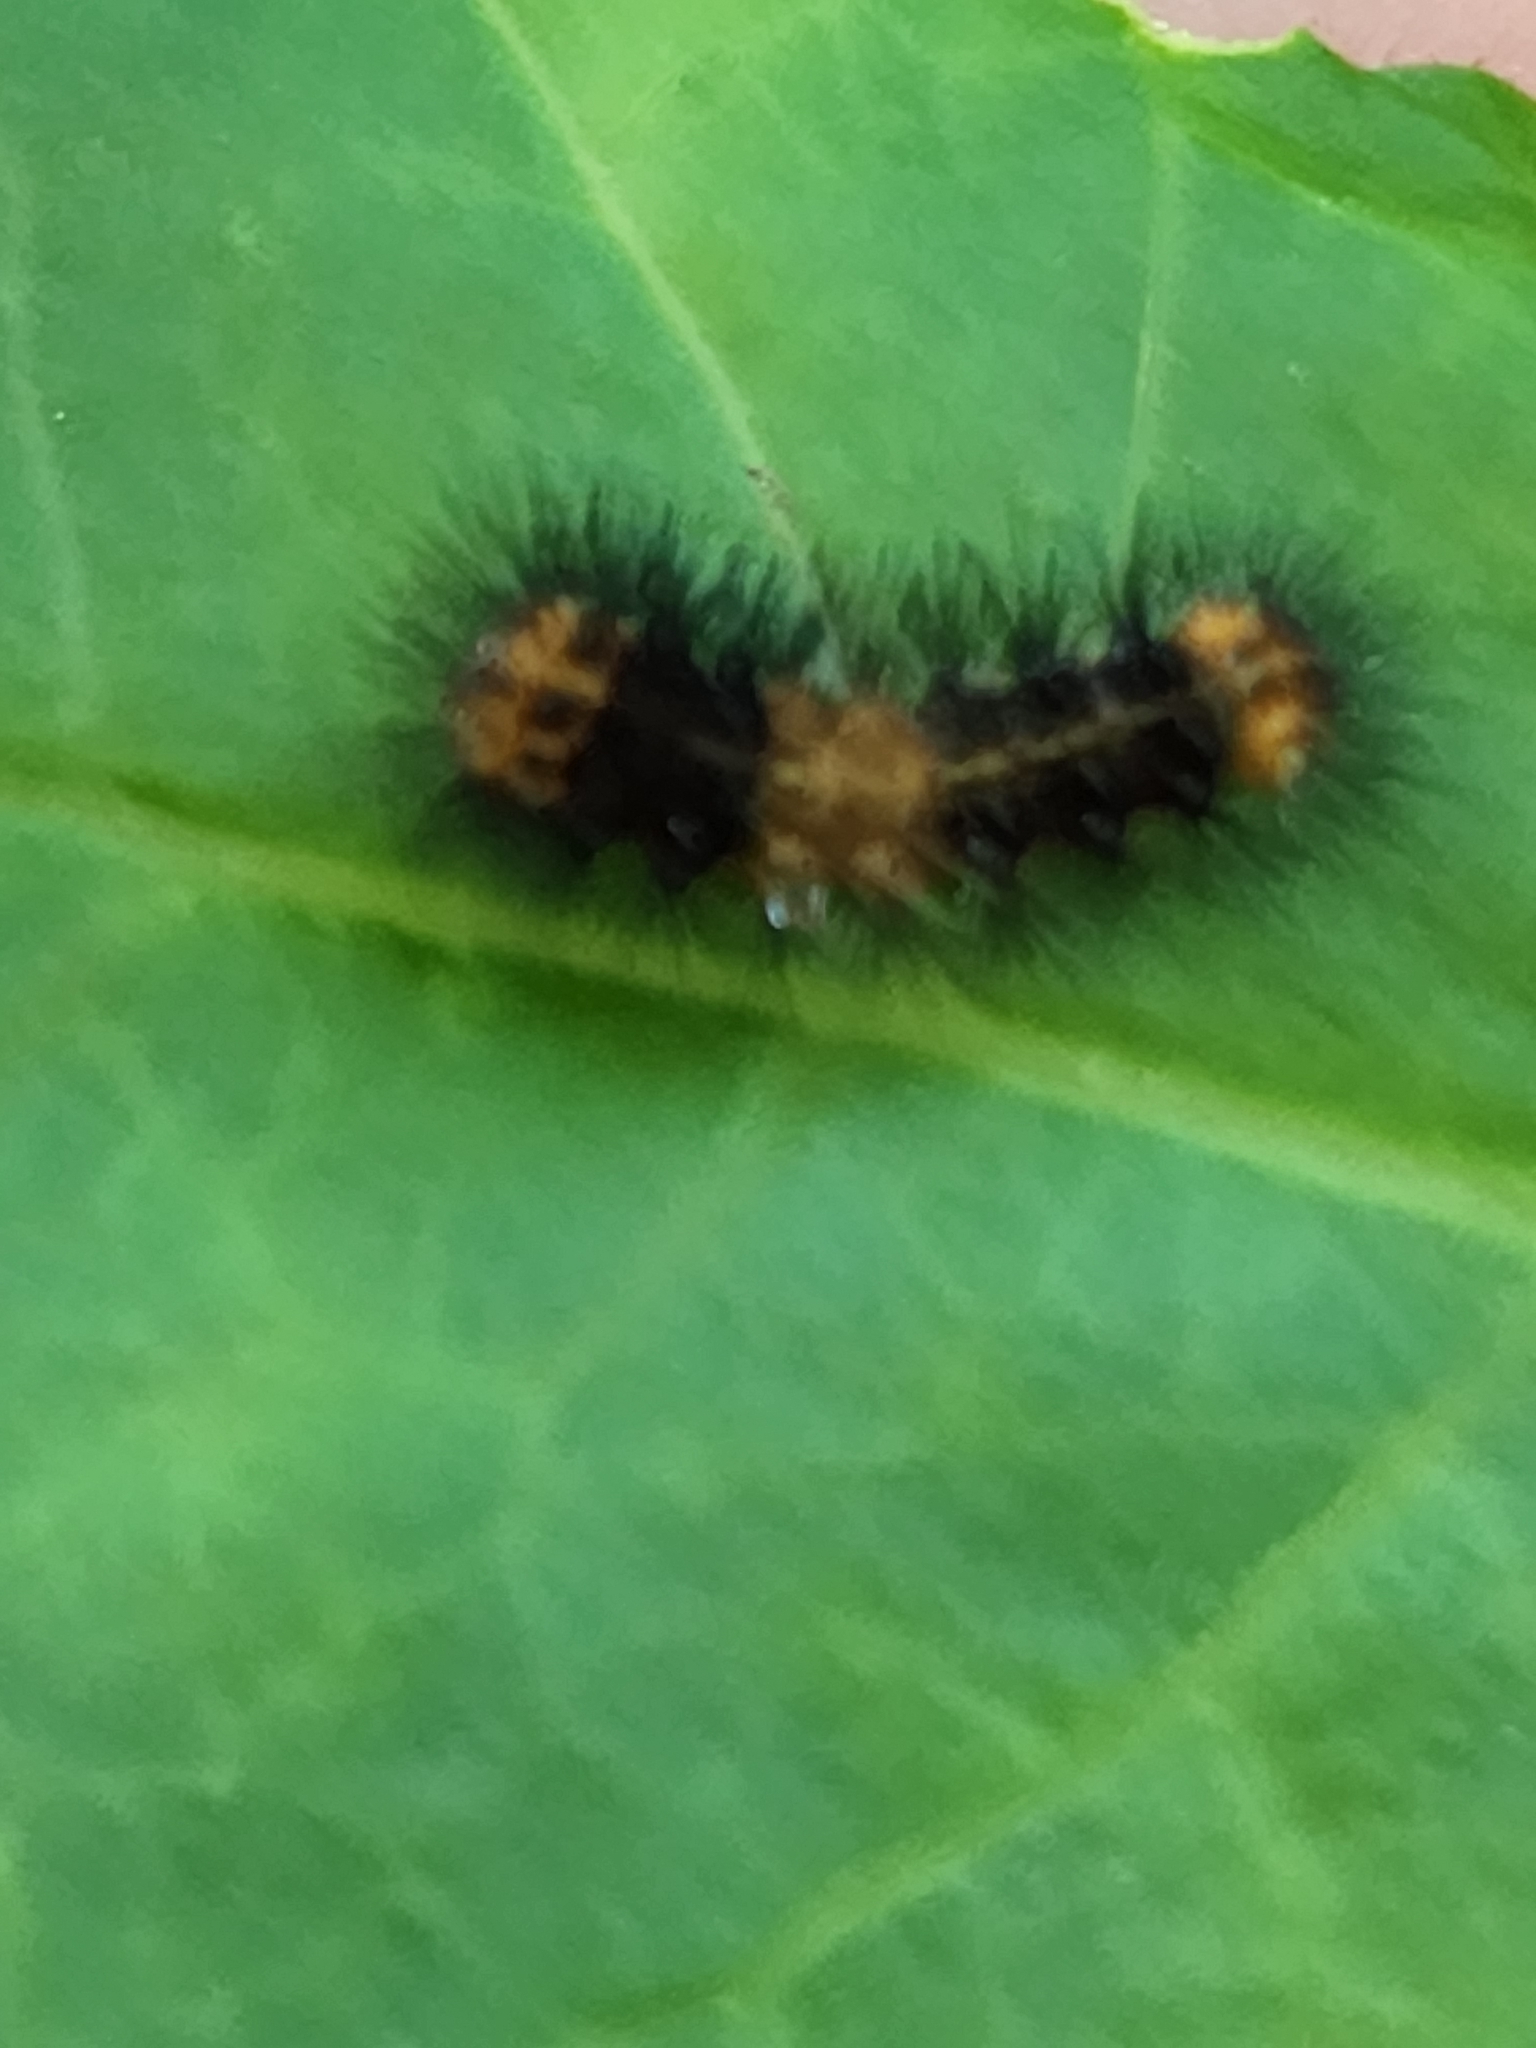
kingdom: Animalia
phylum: Arthropoda
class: Insecta
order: Lepidoptera
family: Erebidae
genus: Hypercompe
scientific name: Hypercompe scribonia
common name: Giant leopard moth
